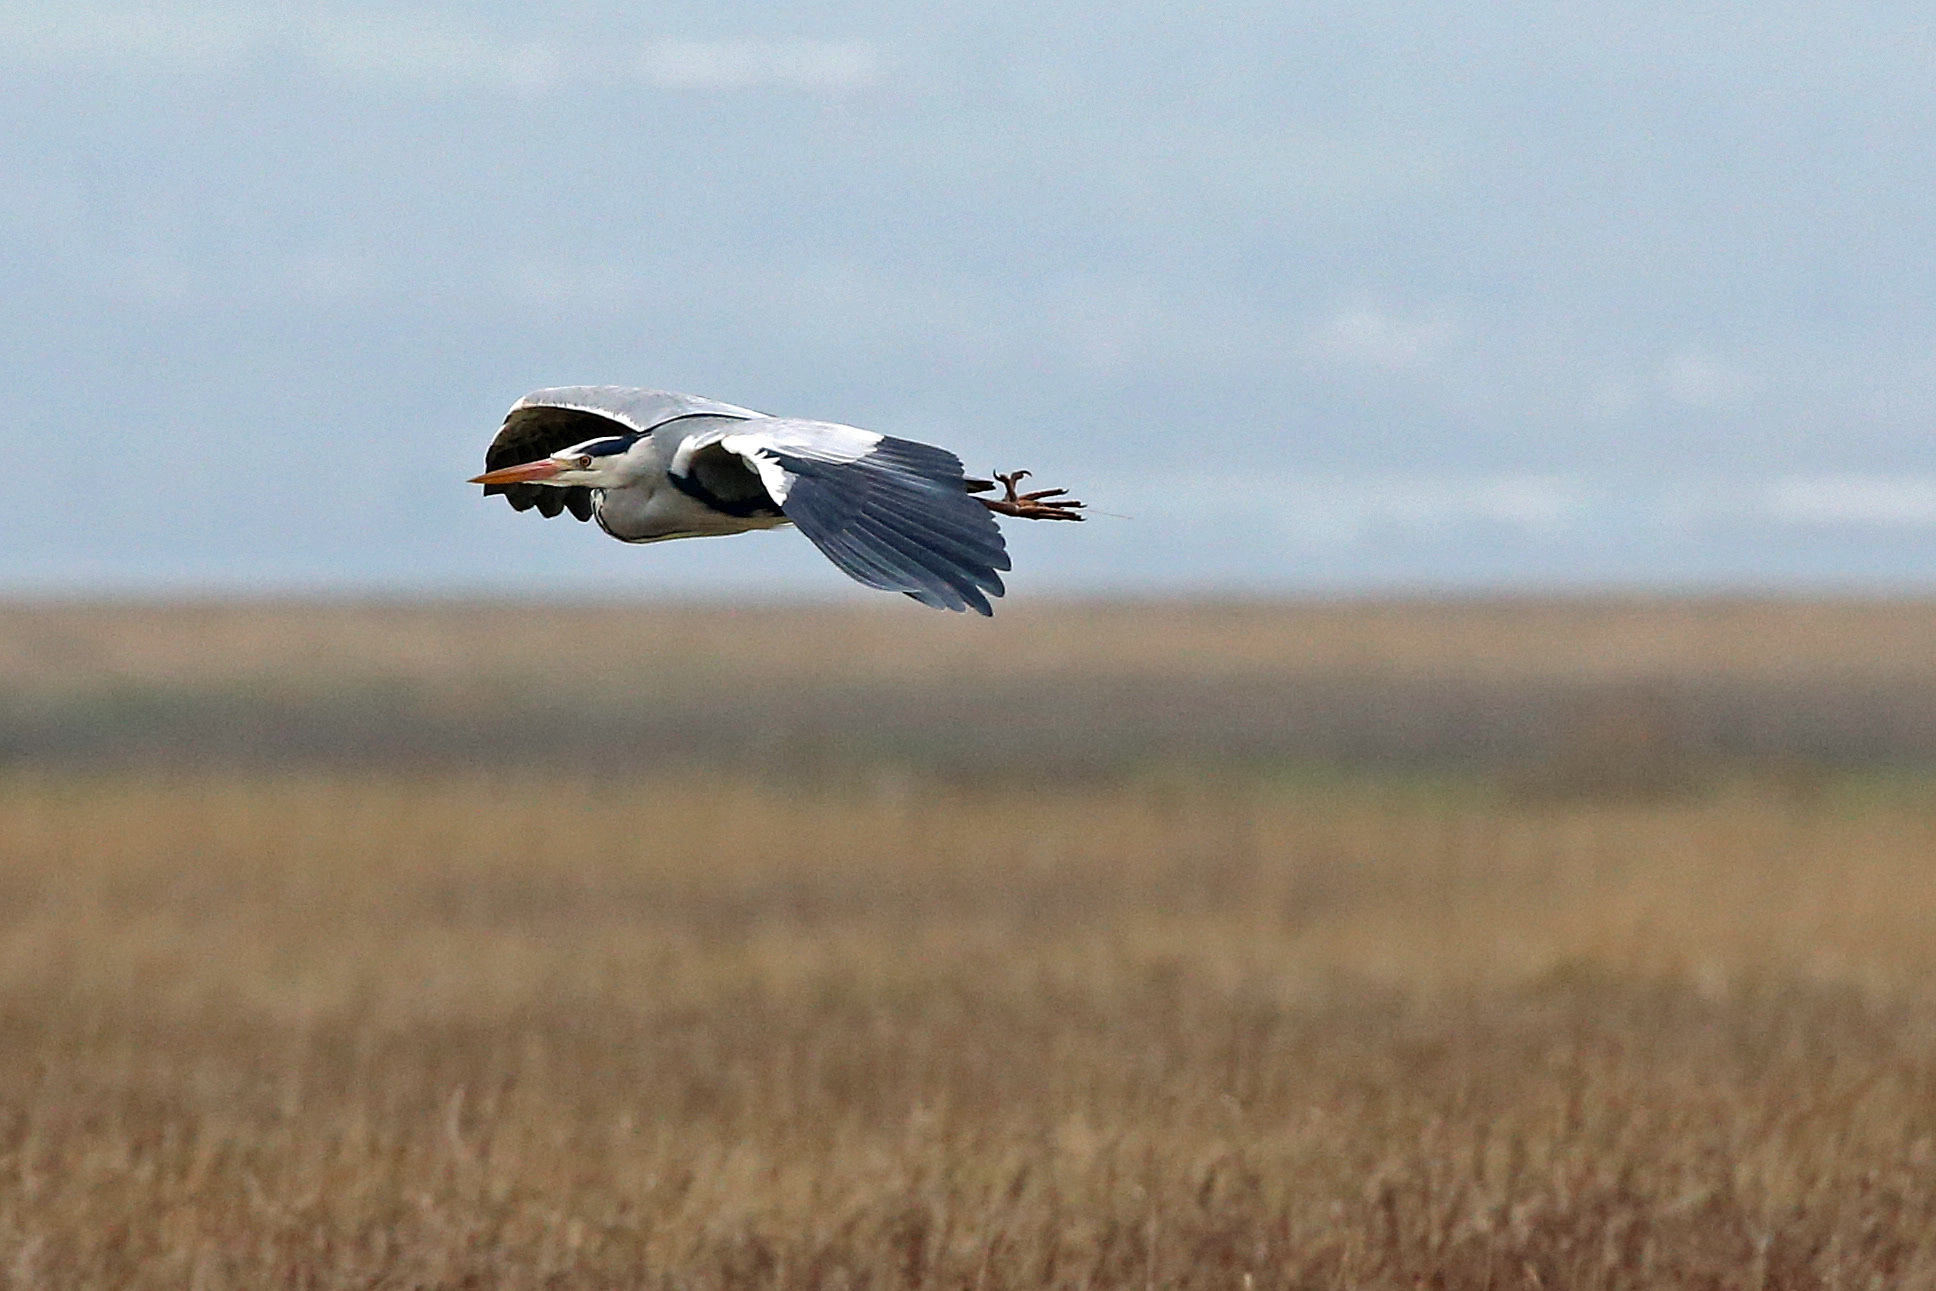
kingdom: Animalia
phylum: Chordata
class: Aves
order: Pelecaniformes
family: Ardeidae
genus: Ardea
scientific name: Ardea cinerea
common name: Grey heron
